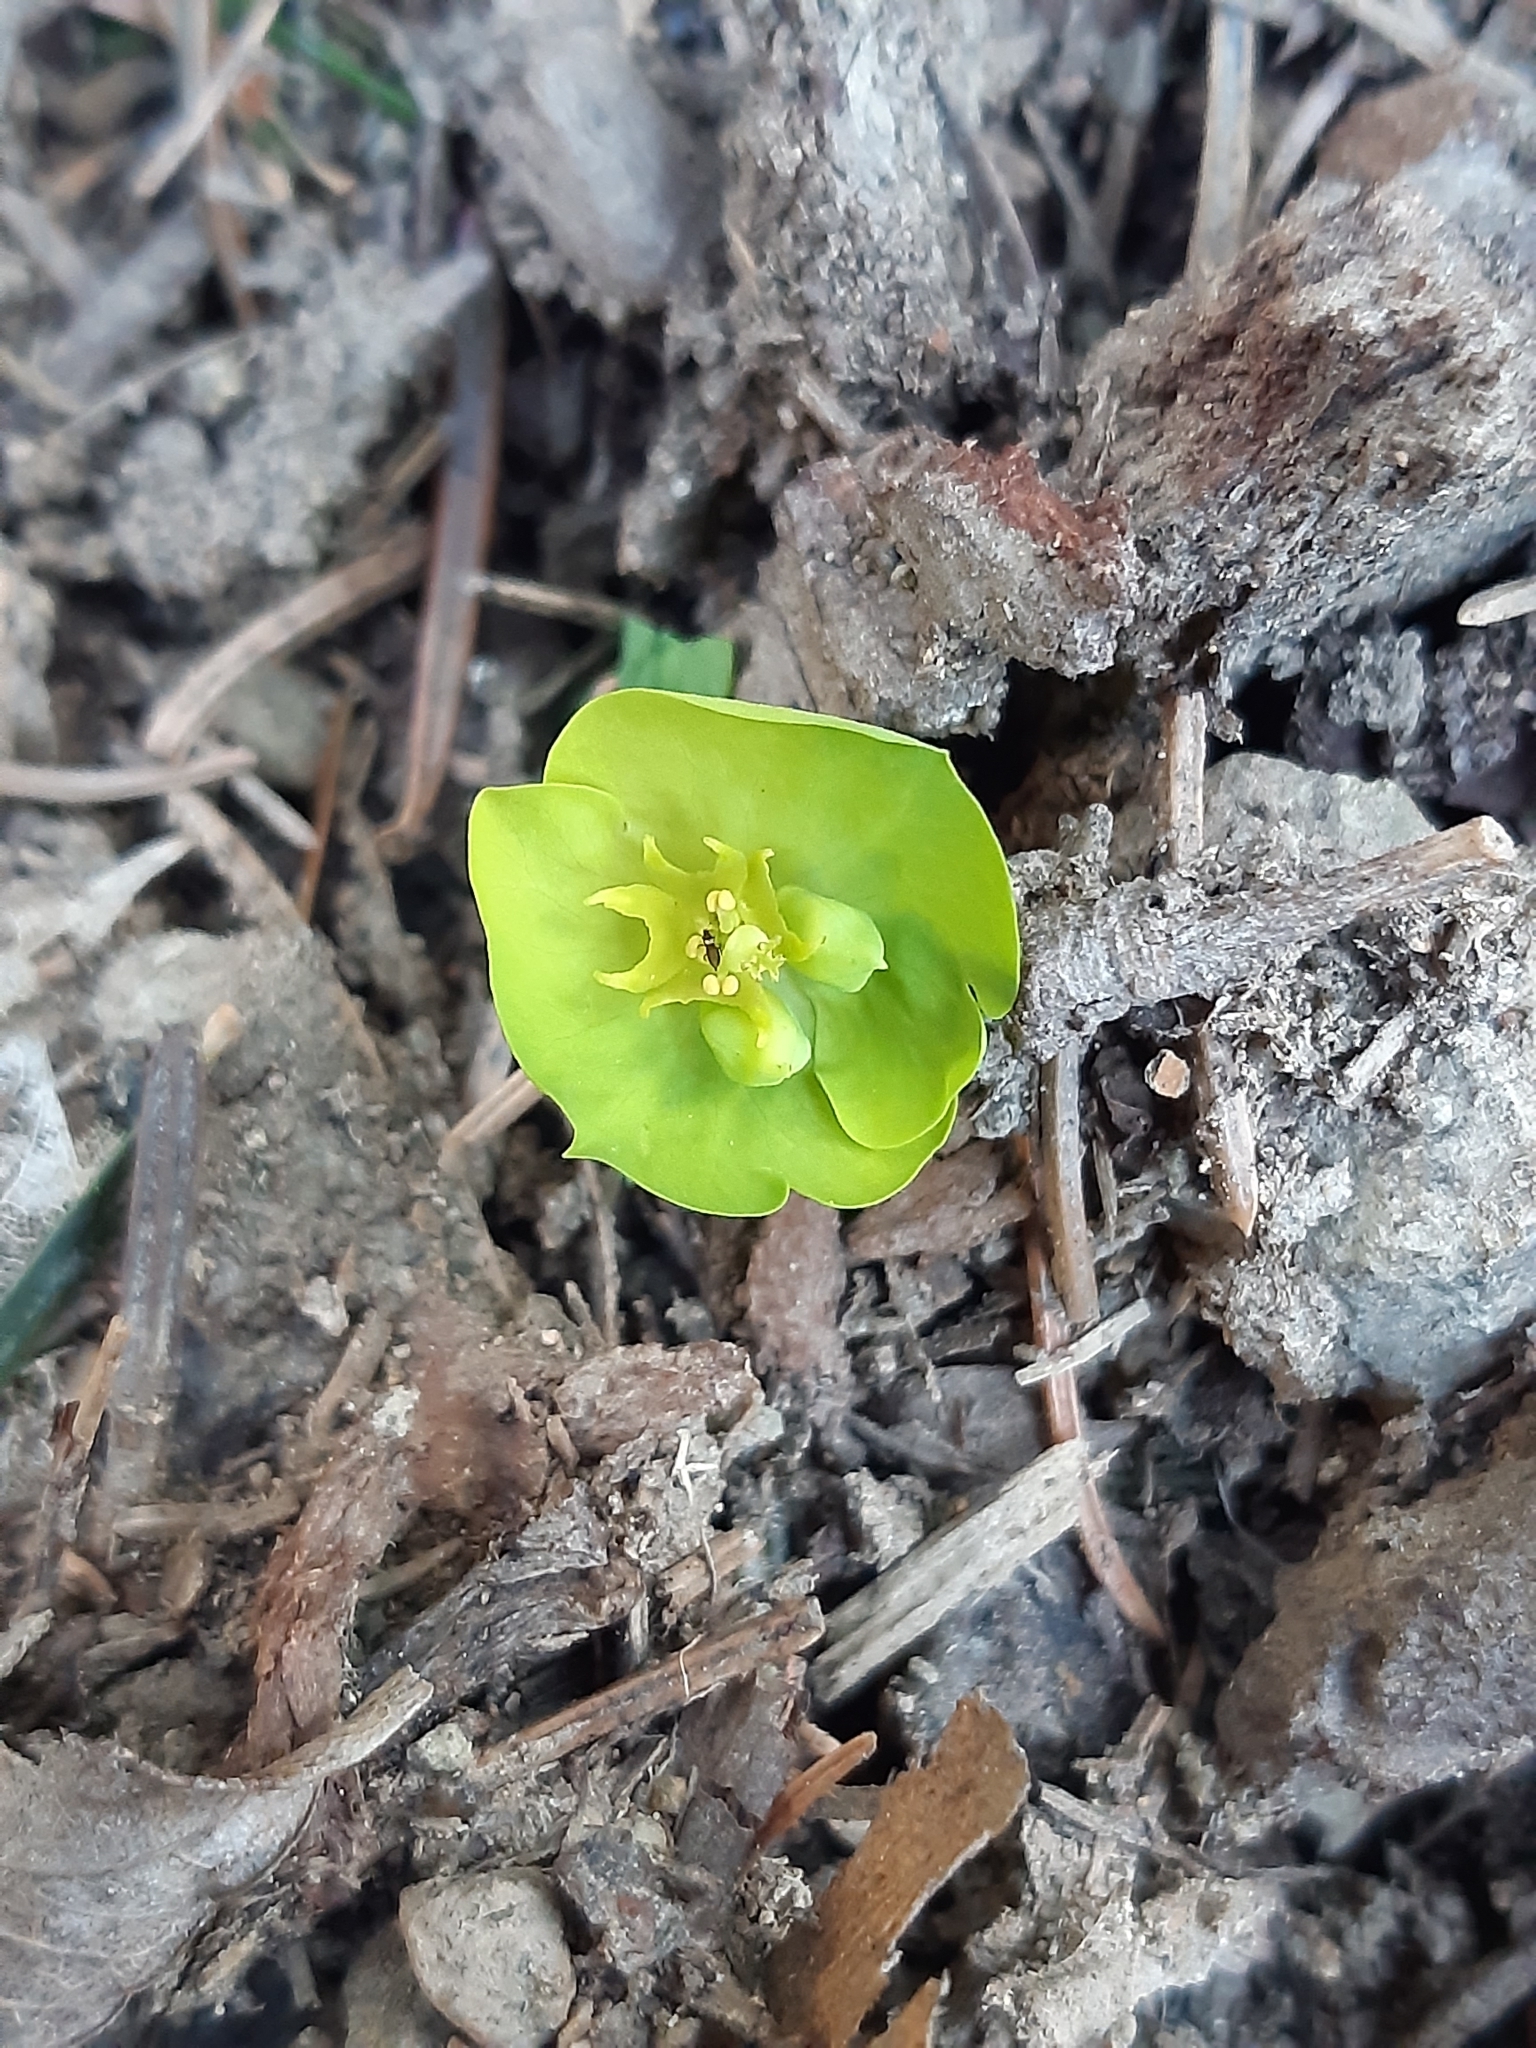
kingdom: Plantae
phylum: Tracheophyta
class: Magnoliopsida
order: Malpighiales
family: Euphorbiaceae
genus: Euphorbia
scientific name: Euphorbia amygdaloides
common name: Wood spurge
